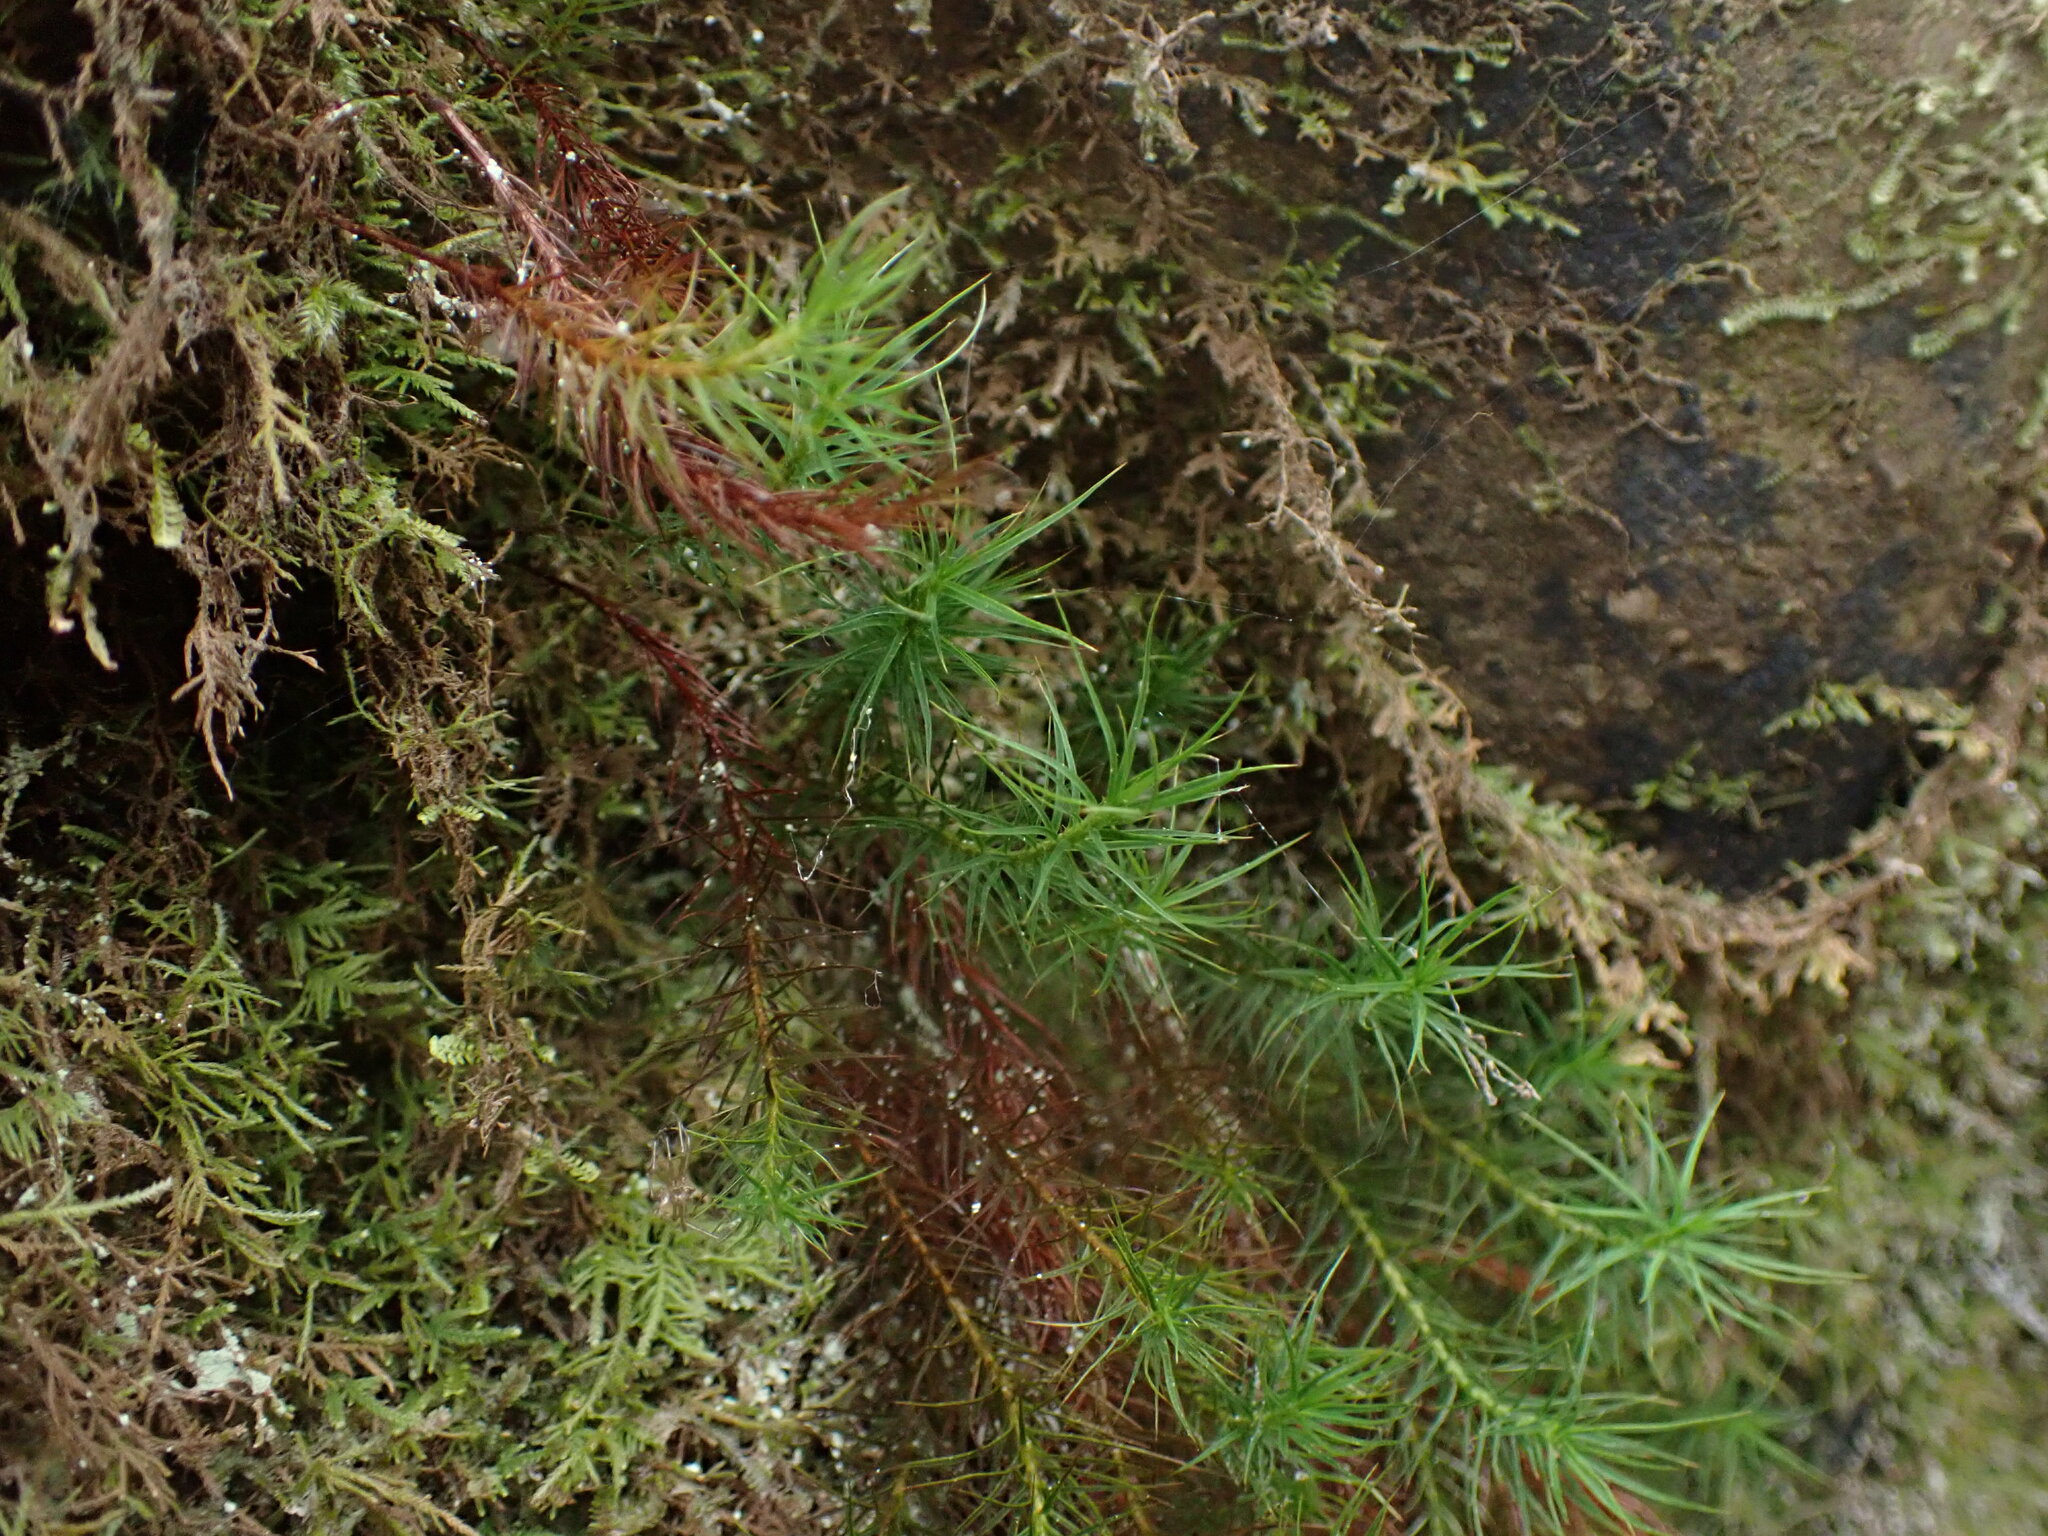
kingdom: Plantae
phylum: Bryophyta
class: Polytrichopsida
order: Polytrichales
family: Polytrichaceae
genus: Polytrichastrum
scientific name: Polytrichastrum alpinum
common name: Alpine haircap
